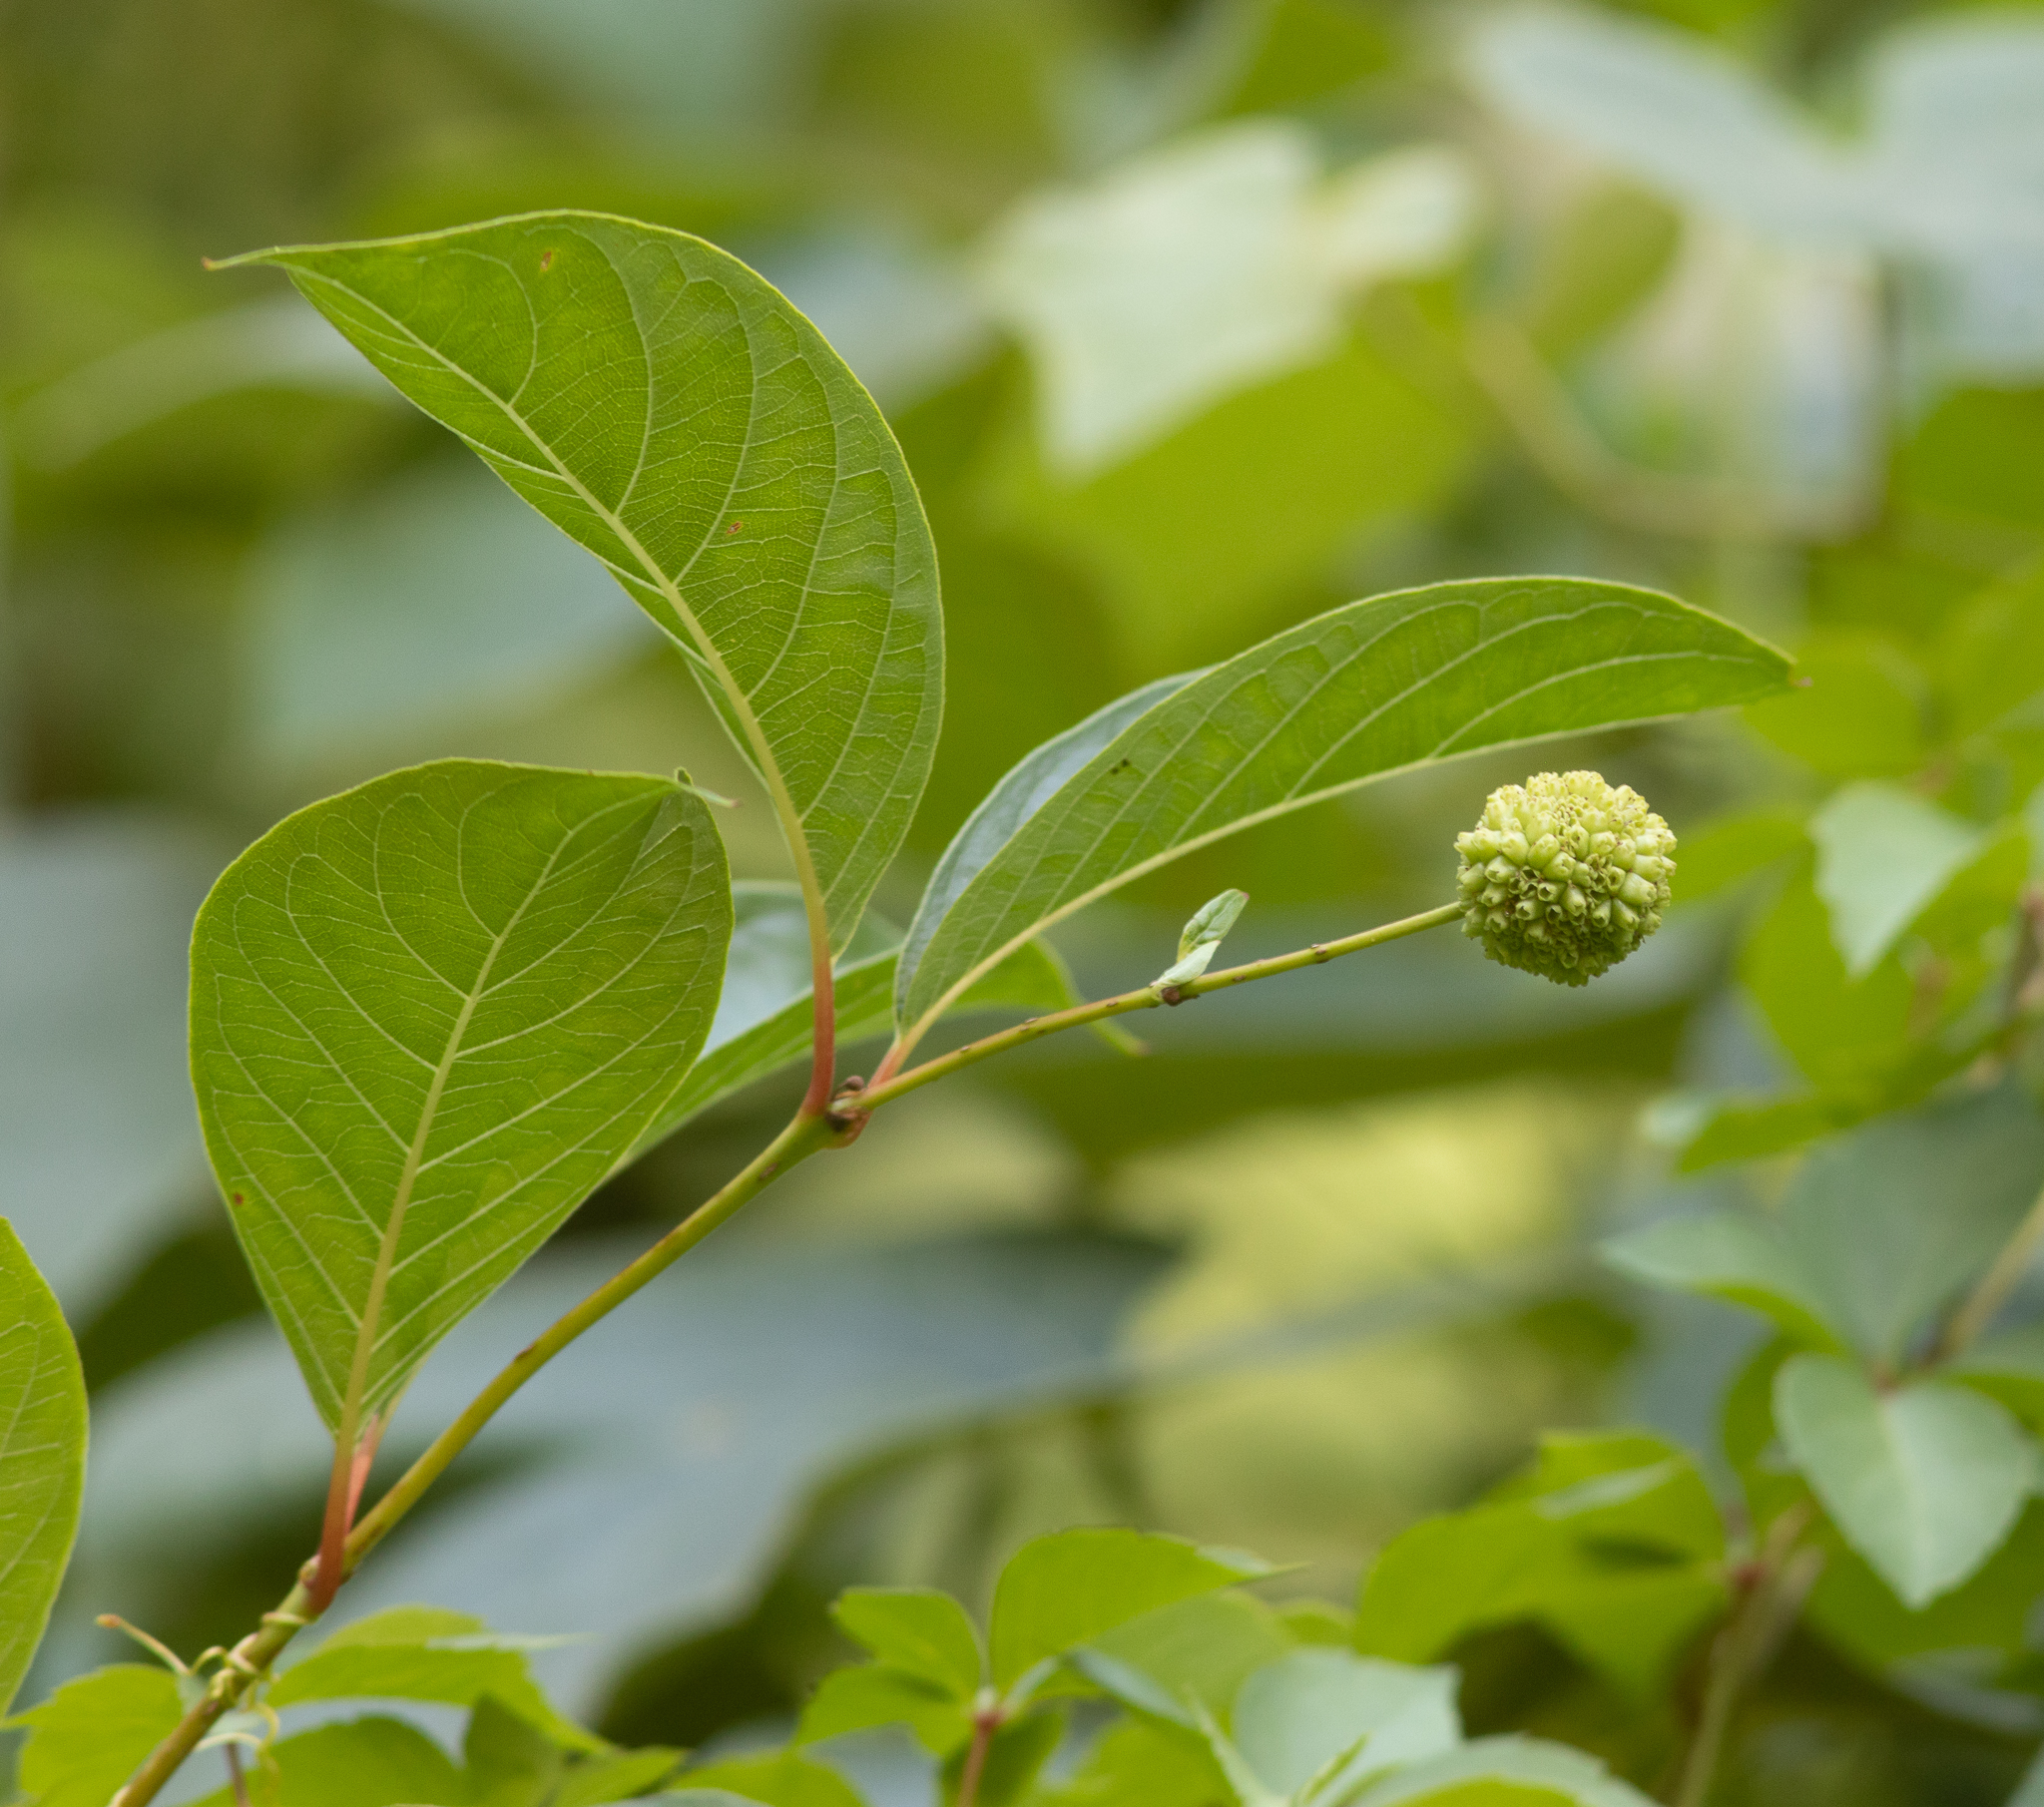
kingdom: Plantae
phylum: Tracheophyta
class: Magnoliopsida
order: Gentianales
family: Rubiaceae
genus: Cephalanthus
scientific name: Cephalanthus occidentalis
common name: Button-willow
